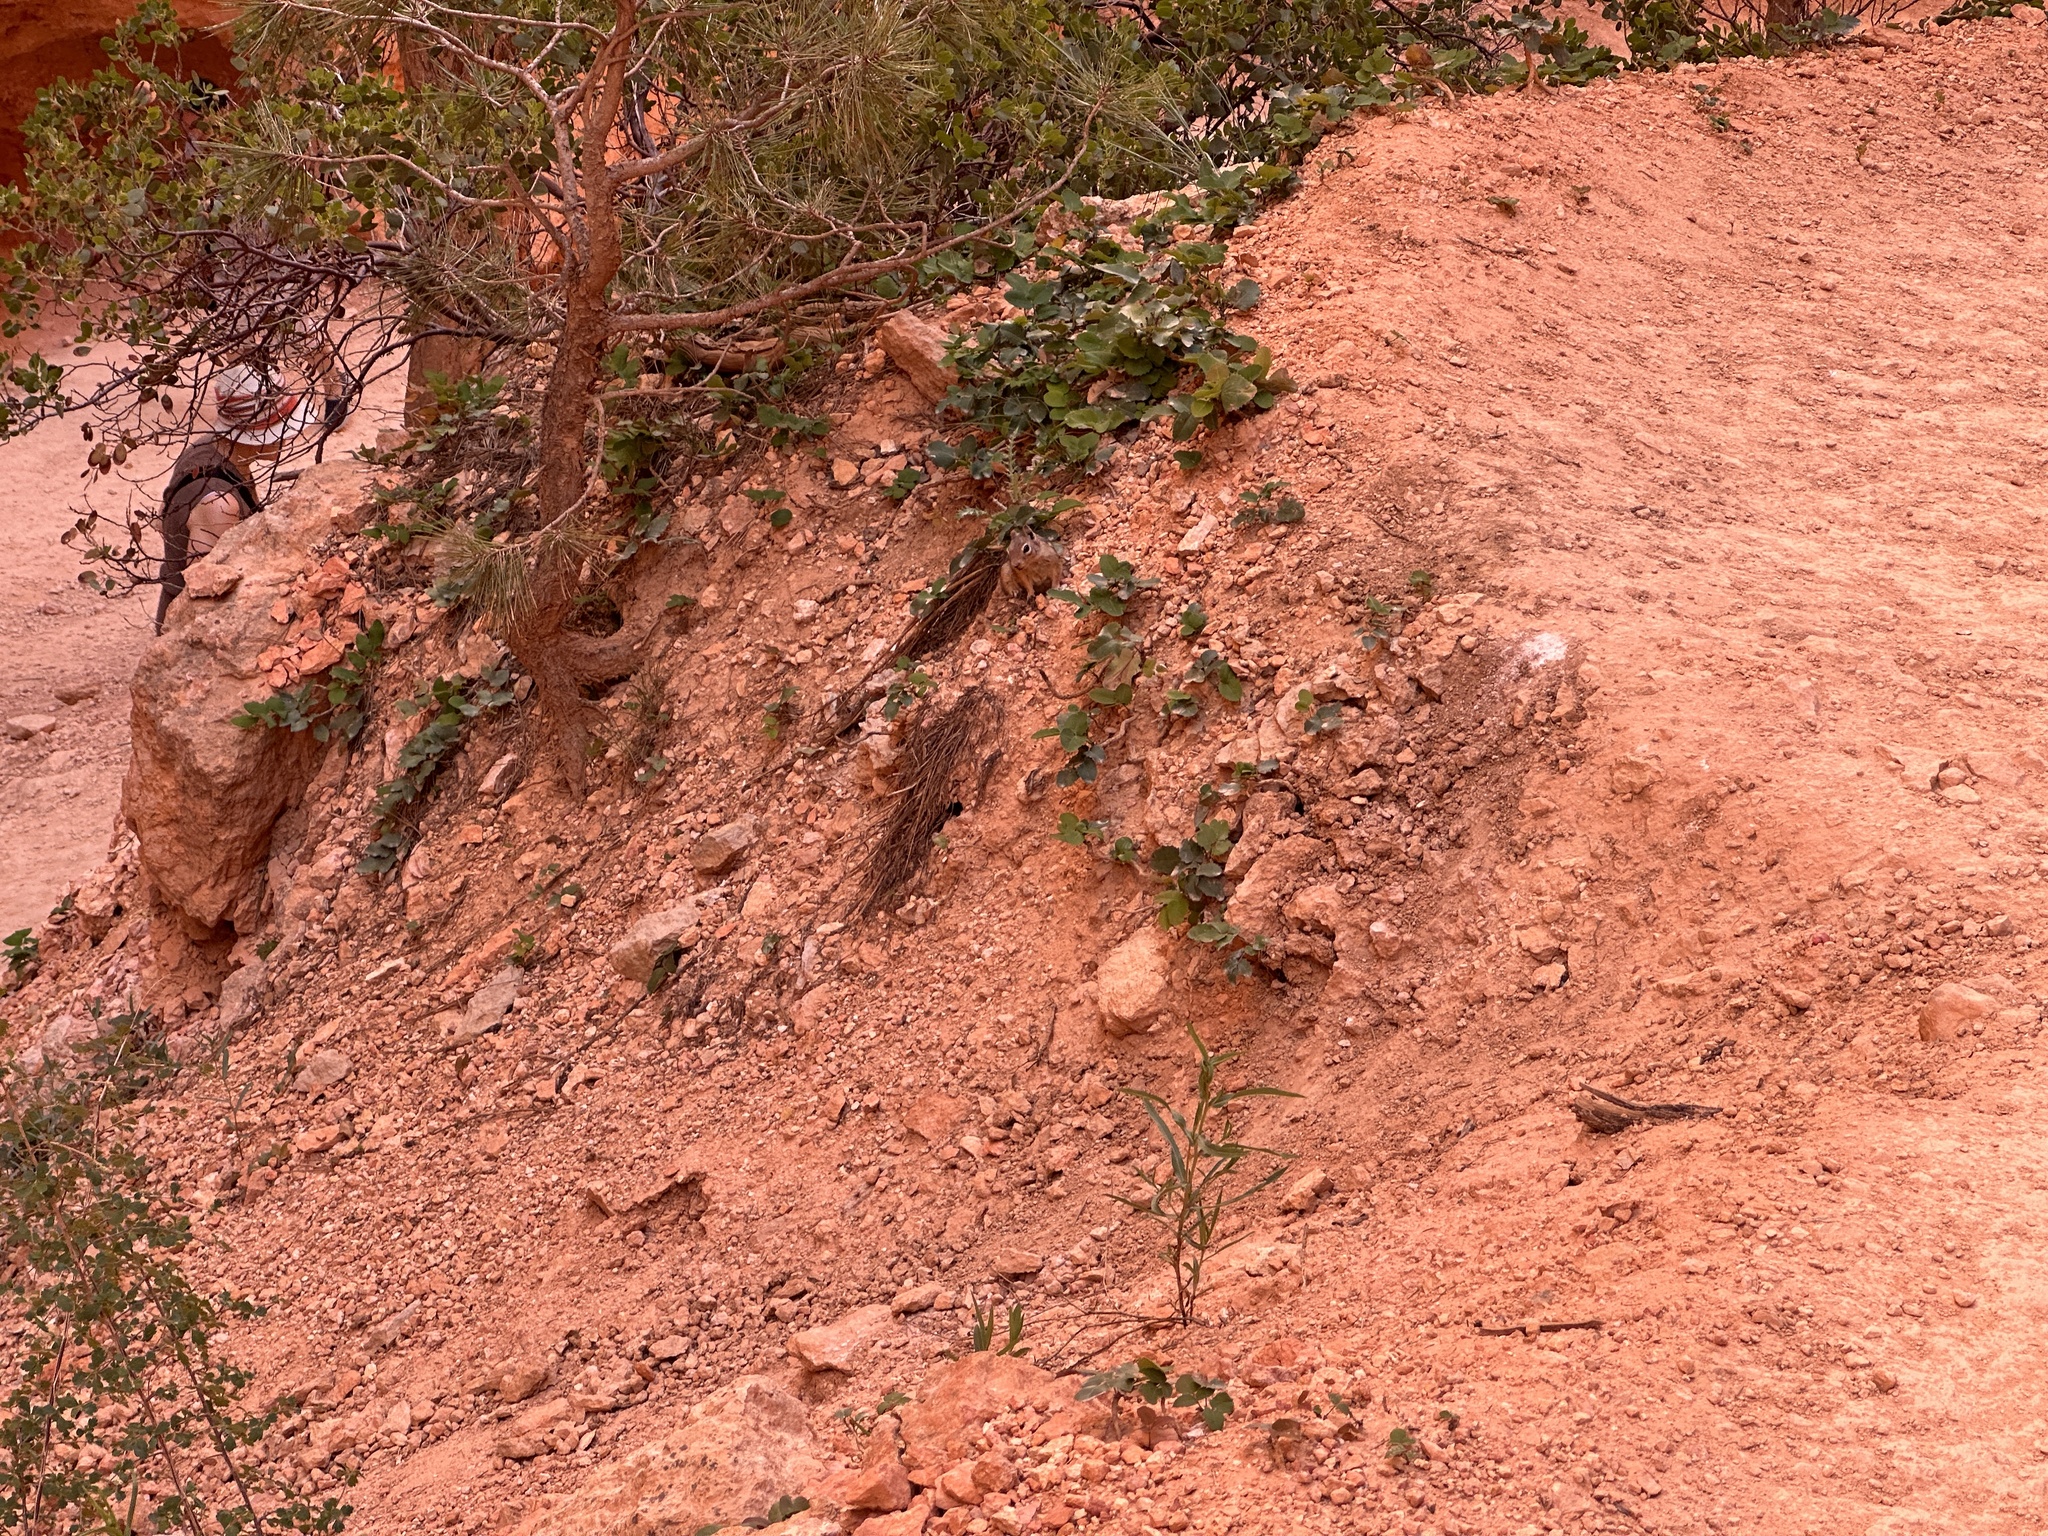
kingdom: Animalia
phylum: Chordata
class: Mammalia
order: Rodentia
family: Sciuridae
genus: Callospermophilus
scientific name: Callospermophilus lateralis
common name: Golden-mantled ground squirrel
